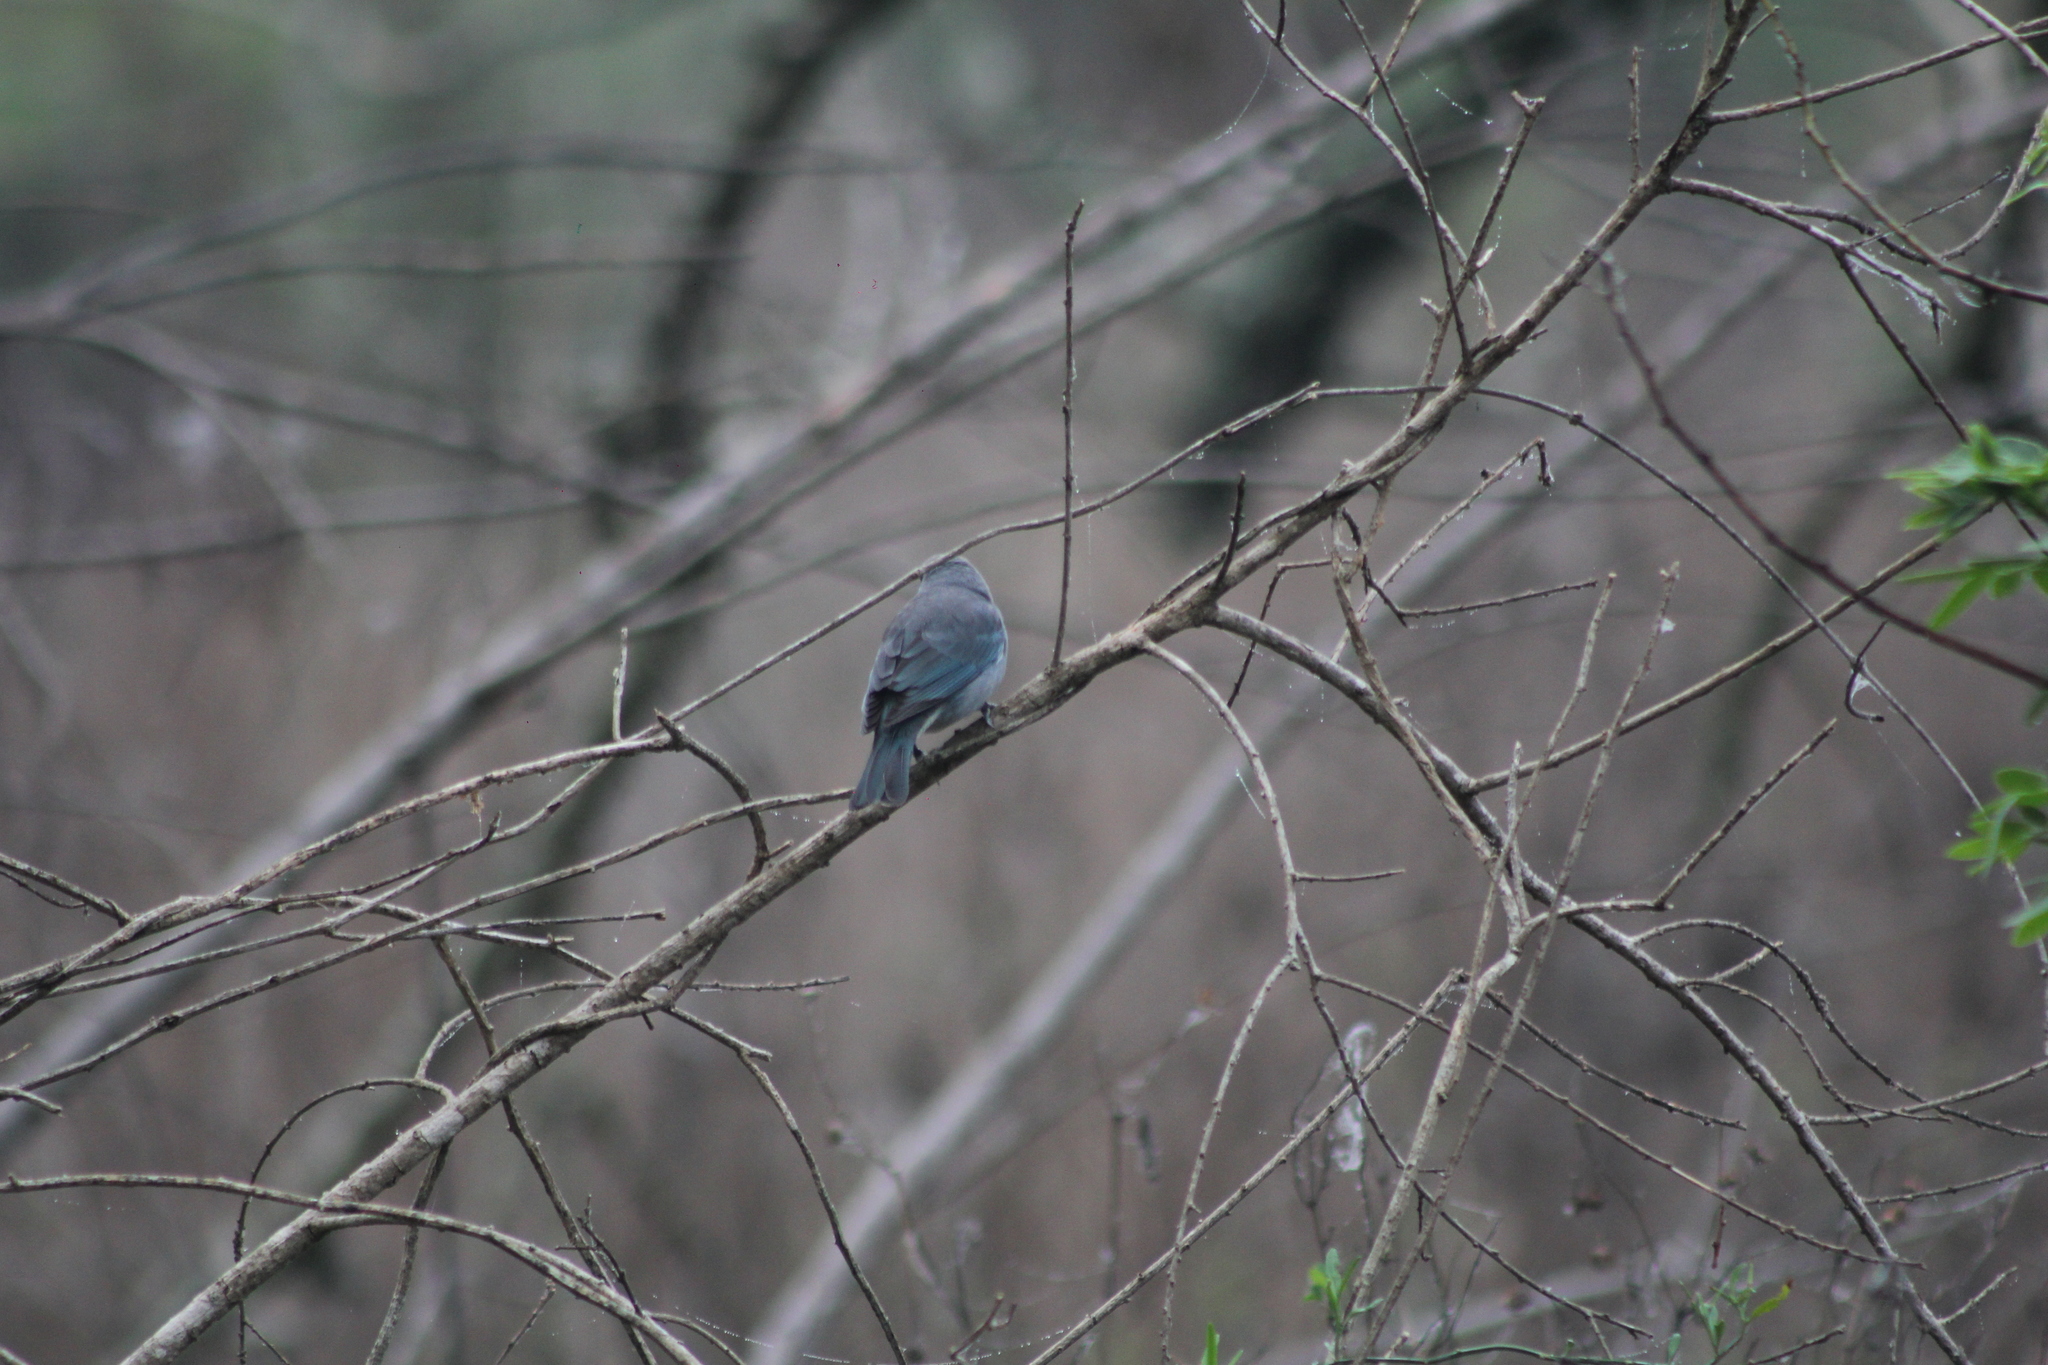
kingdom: Animalia
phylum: Chordata
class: Aves
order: Passeriformes
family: Thraupidae
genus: Thraupis
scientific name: Thraupis sayaca
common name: Sayaca tanager
